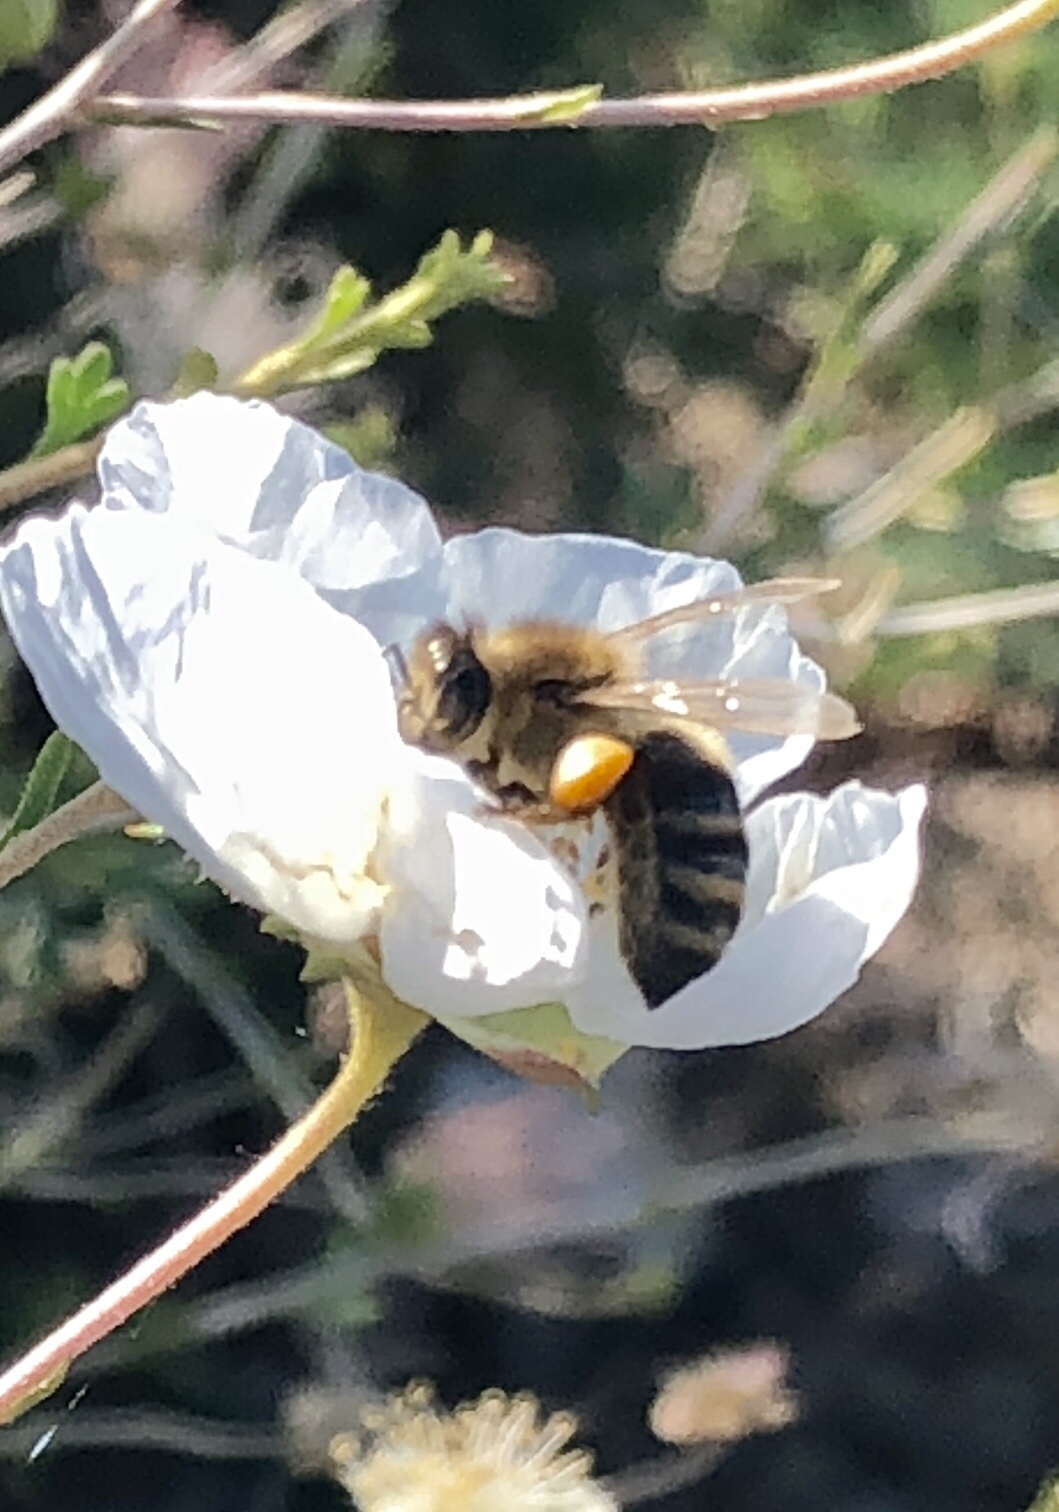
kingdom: Animalia
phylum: Arthropoda
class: Insecta
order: Hymenoptera
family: Apidae
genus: Apis
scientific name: Apis mellifera
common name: Honey bee
